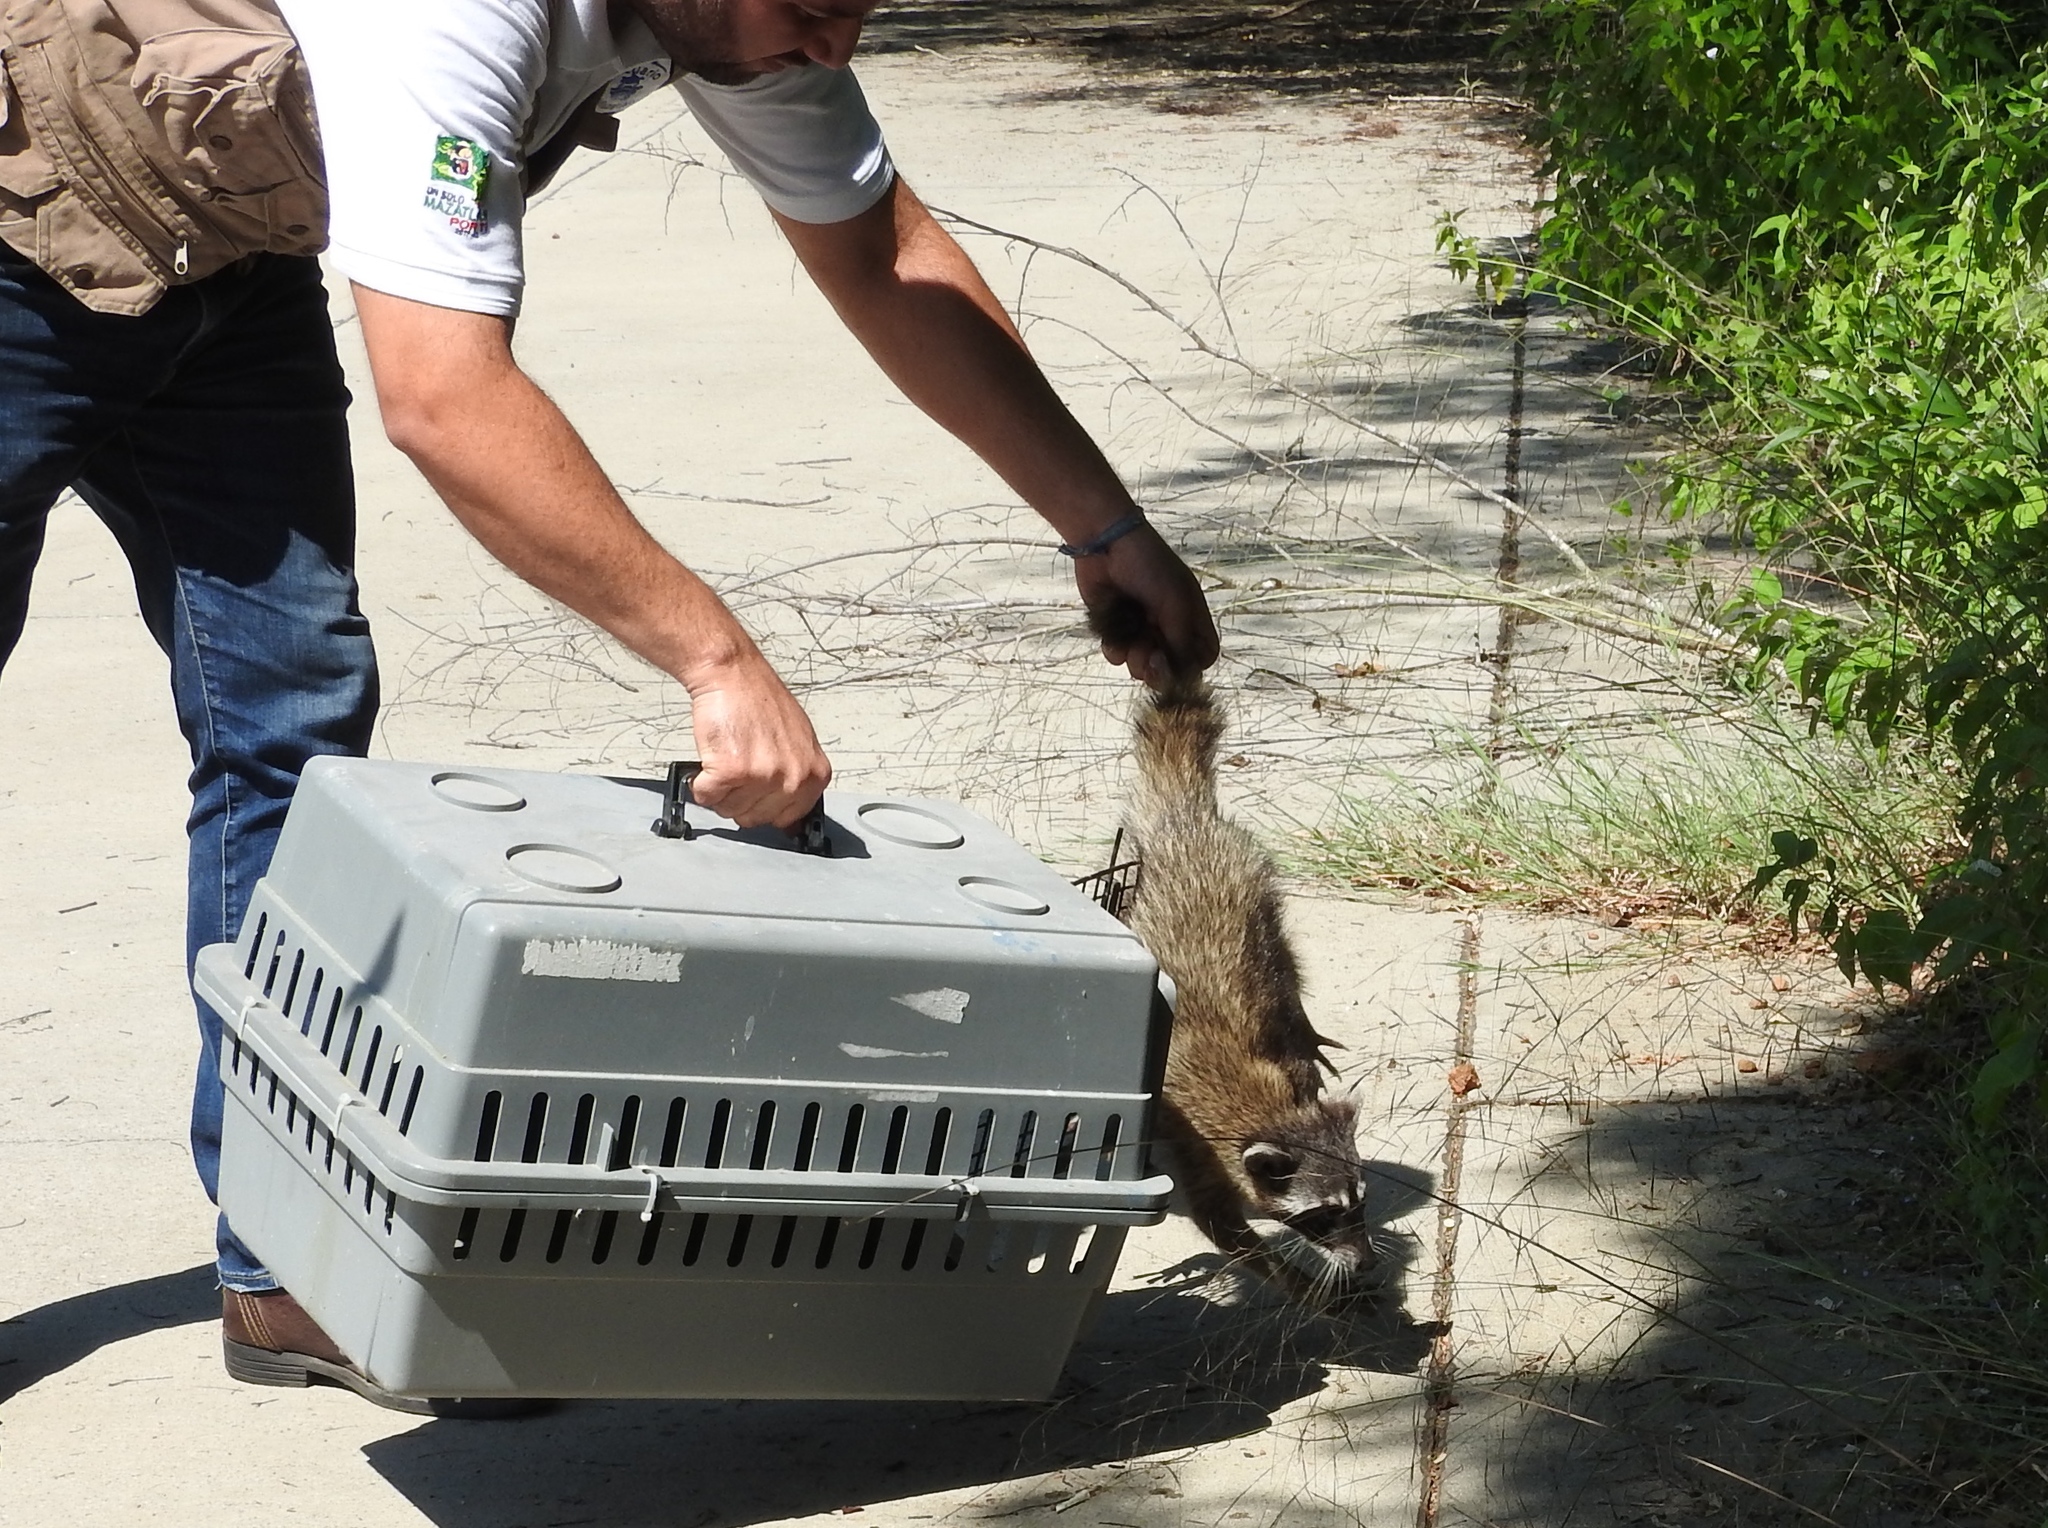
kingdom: Animalia
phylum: Chordata
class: Mammalia
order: Carnivora
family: Procyonidae
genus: Procyon
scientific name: Procyon lotor
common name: Raccoon
